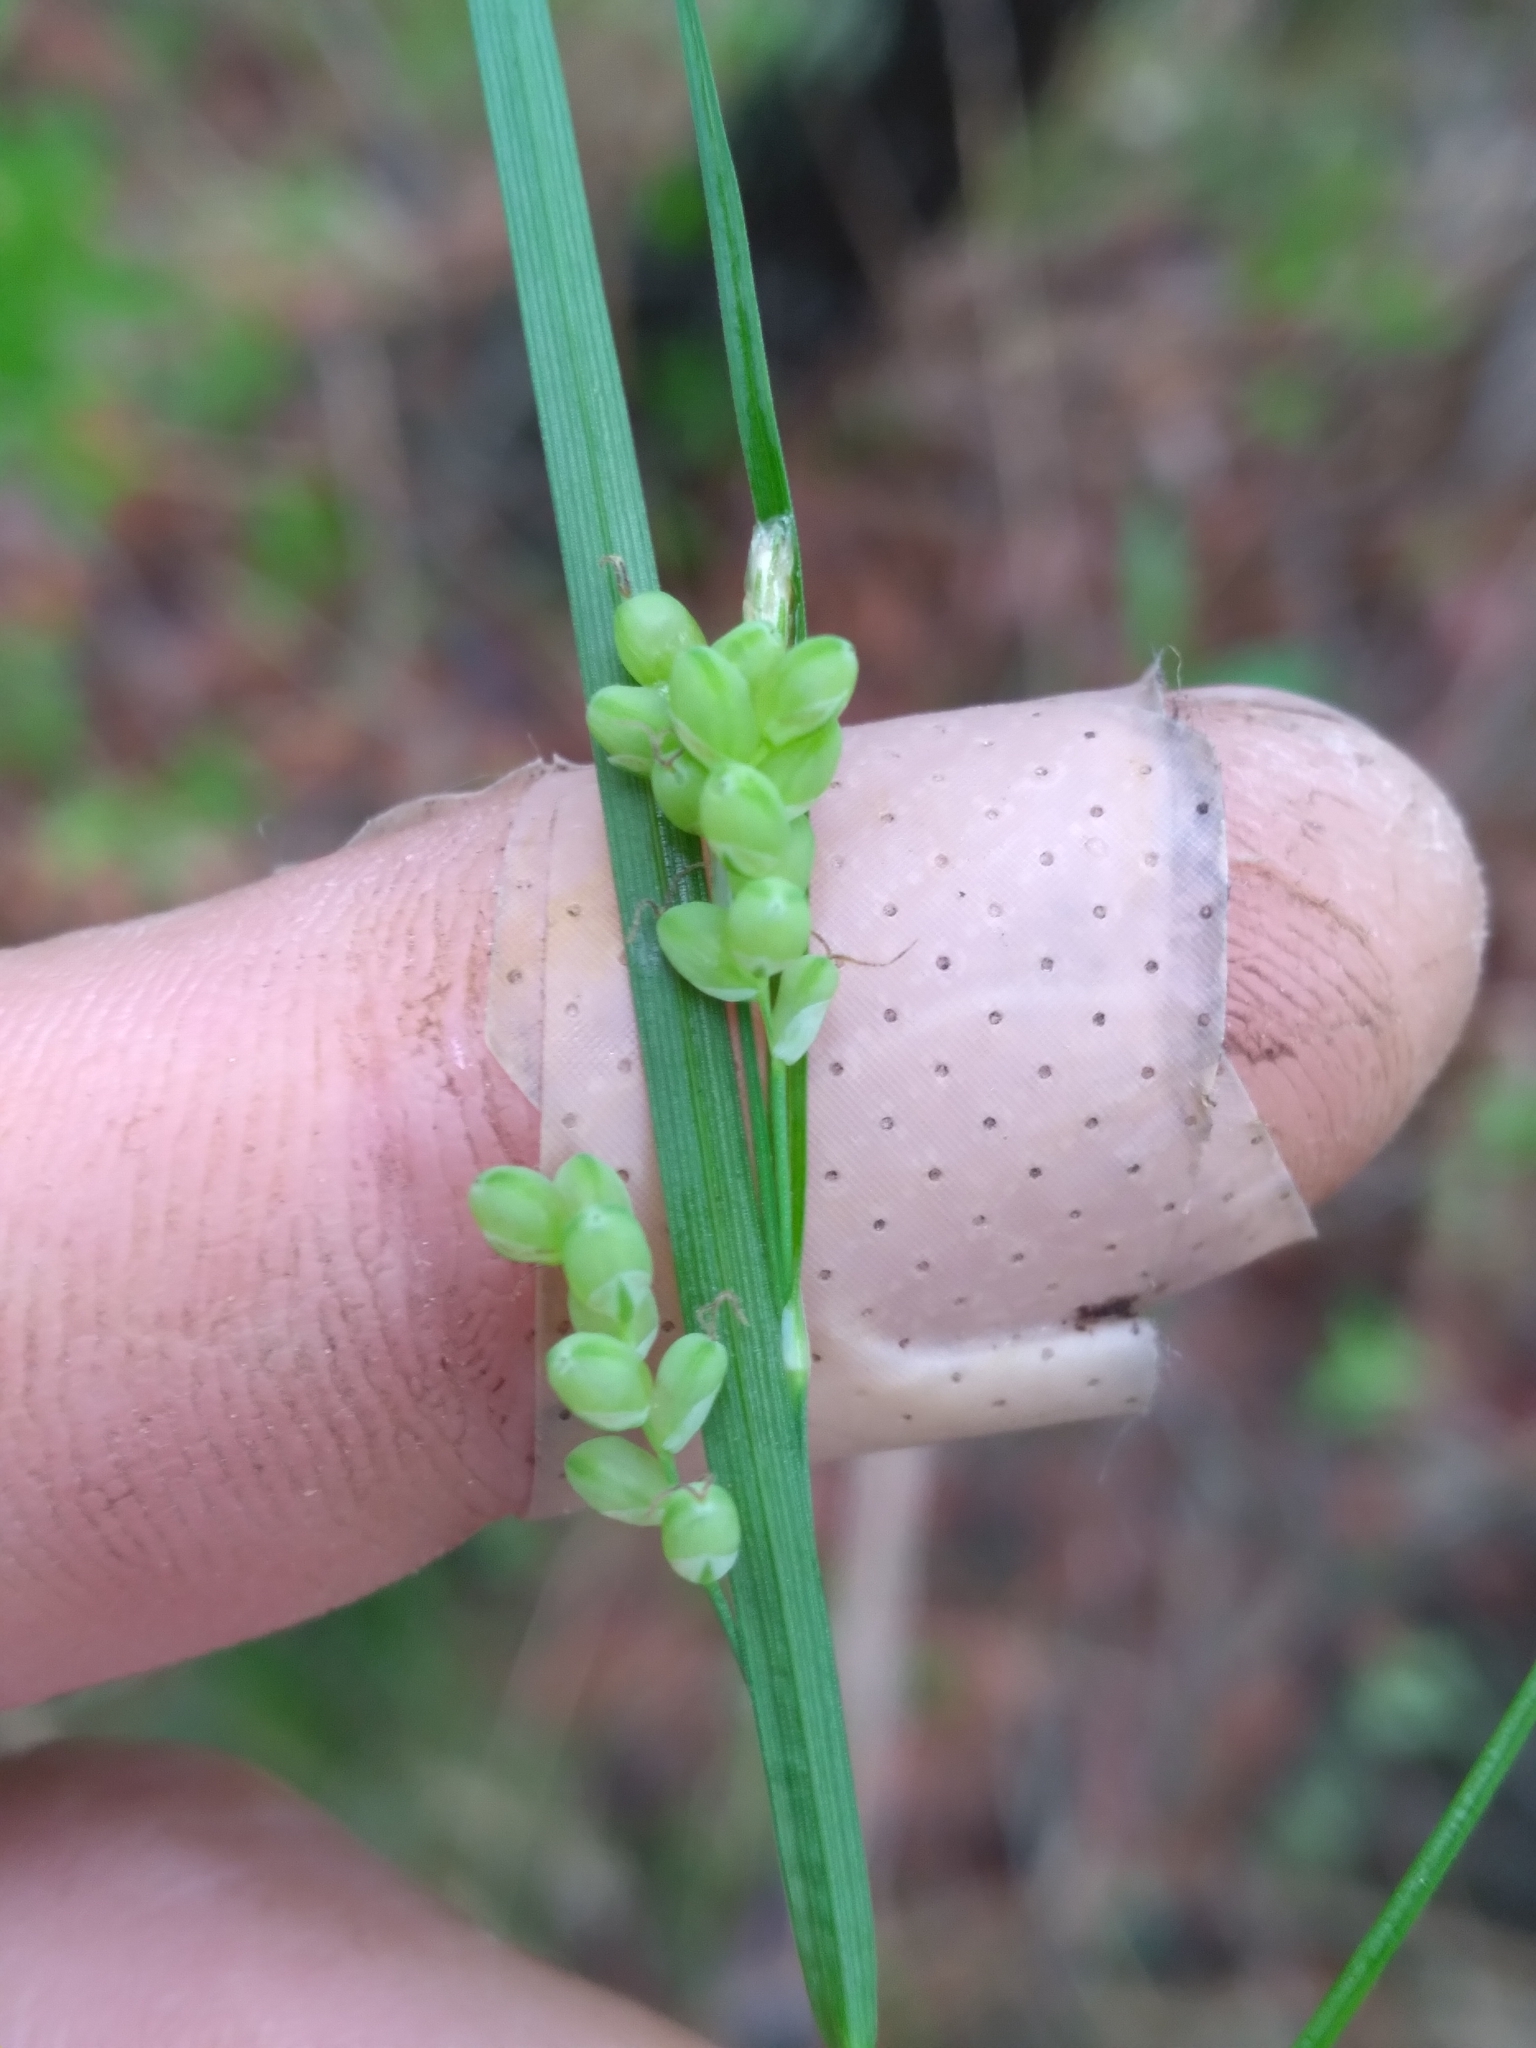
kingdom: Plantae
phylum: Tracheophyta
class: Liliopsida
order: Poales
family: Cyperaceae
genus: Carex
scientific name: Carex aurea
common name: Golden sedge
